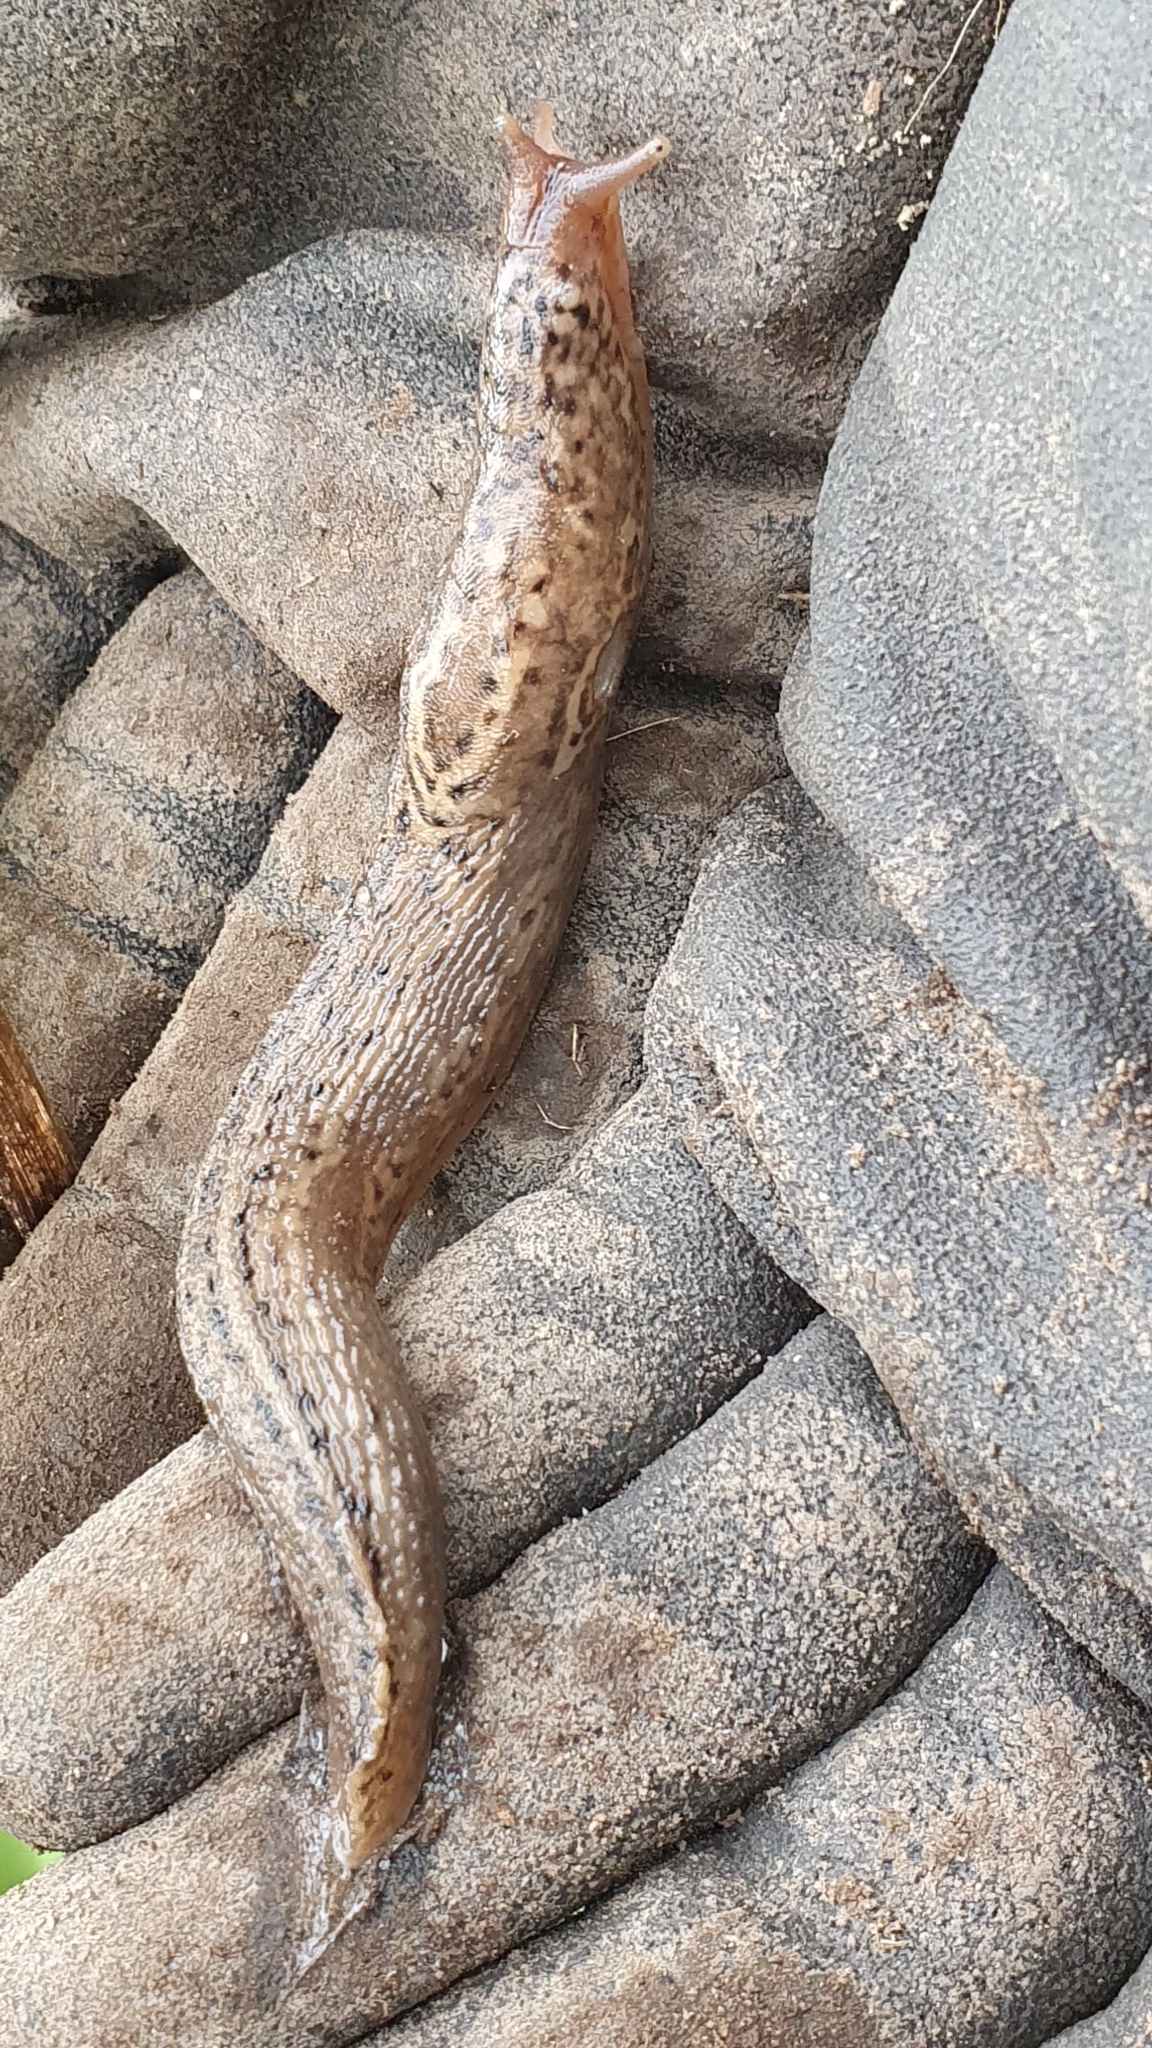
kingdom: Animalia
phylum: Mollusca
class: Gastropoda
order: Stylommatophora
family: Limacidae
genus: Limax
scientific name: Limax maximus
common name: Great grey slug
